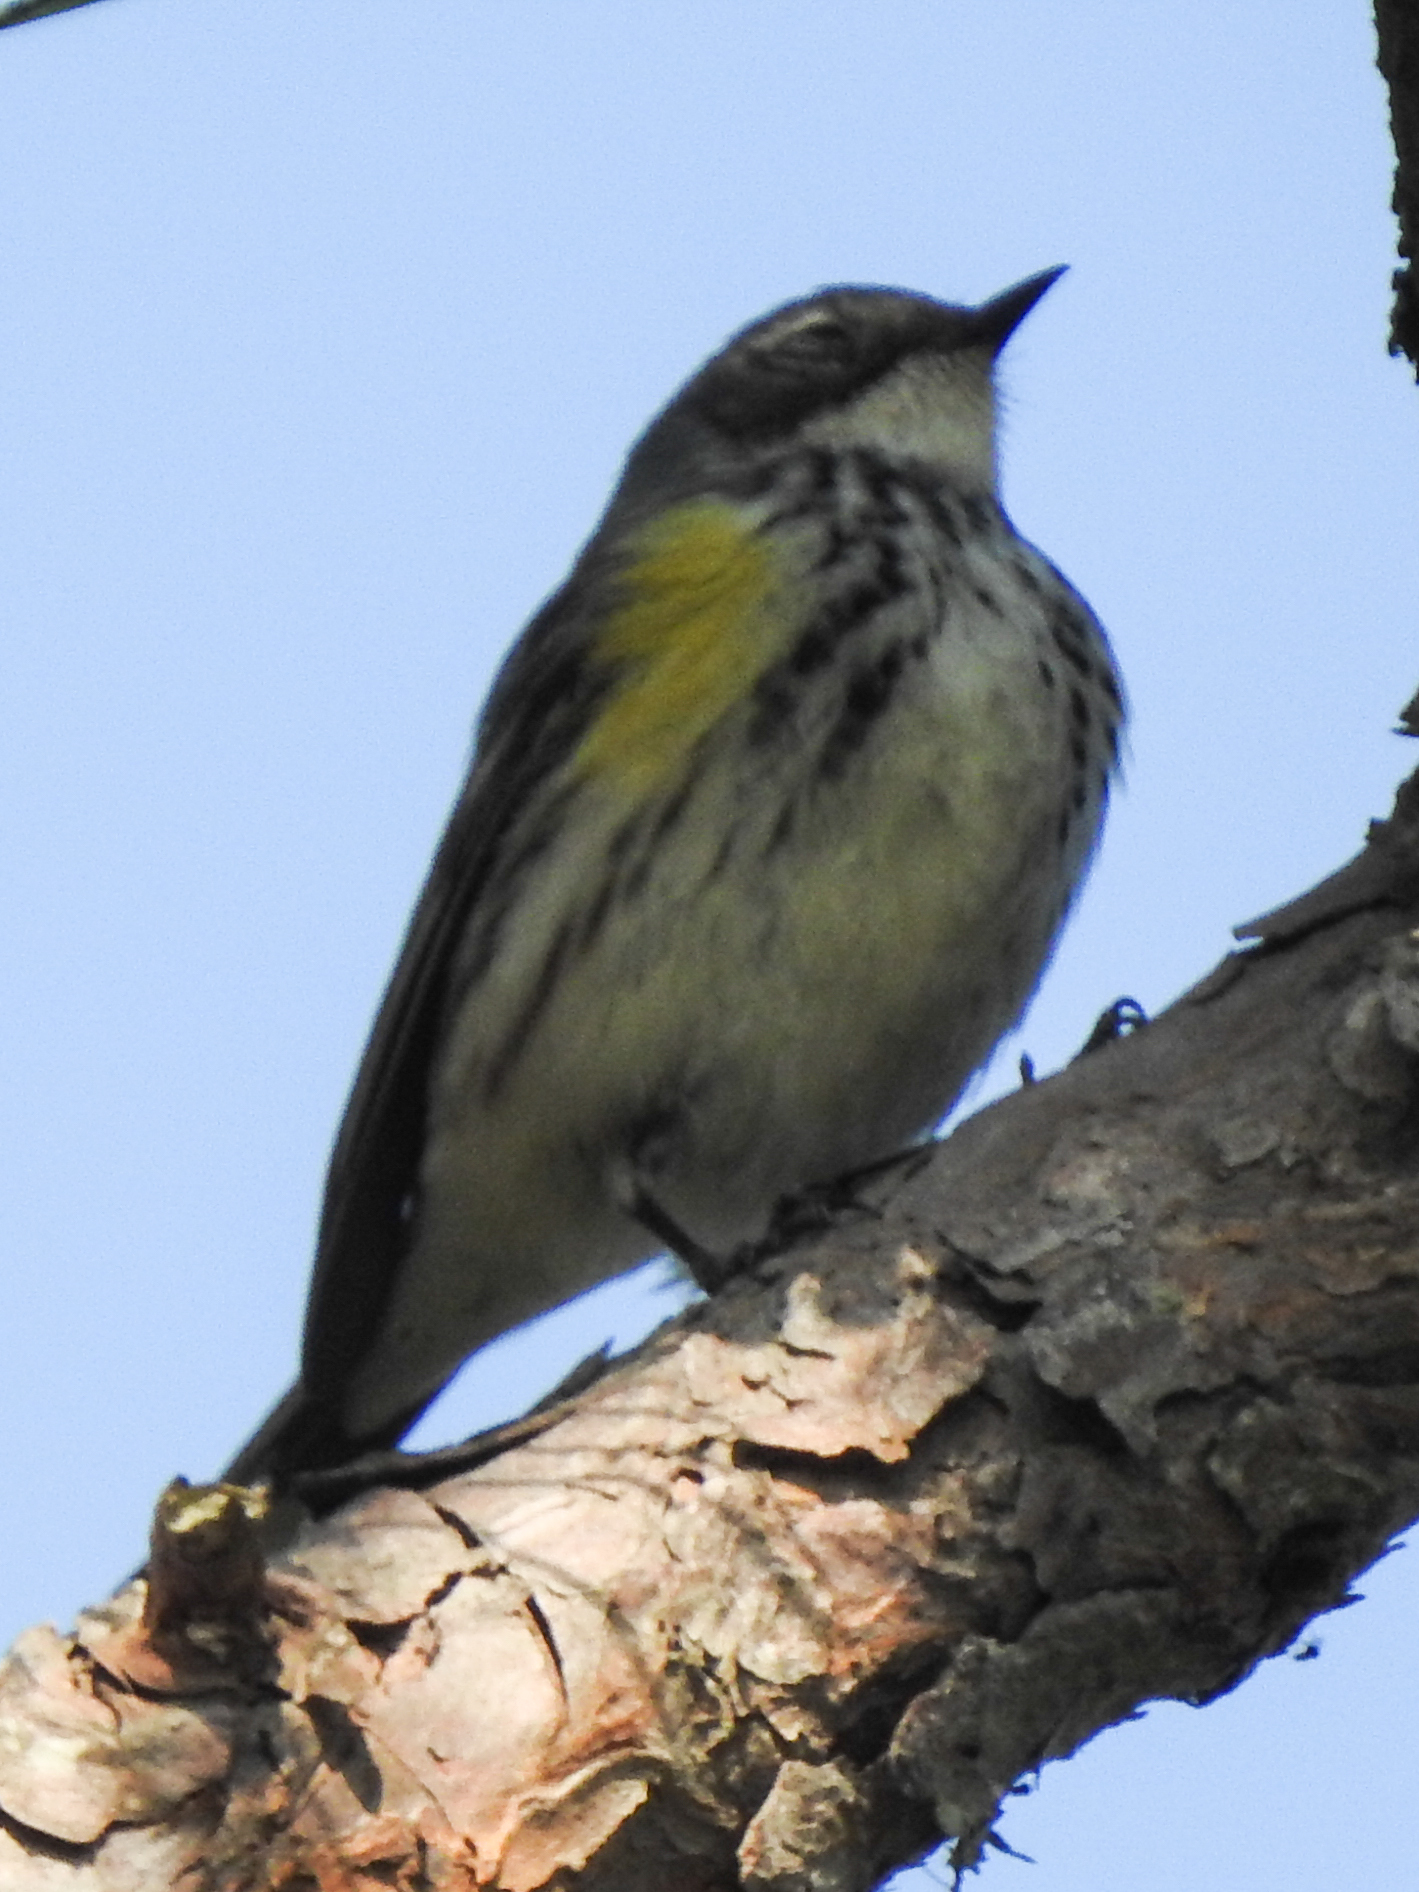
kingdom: Animalia
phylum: Chordata
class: Aves
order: Passeriformes
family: Parulidae
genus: Setophaga
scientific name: Setophaga coronata
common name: Myrtle warbler
